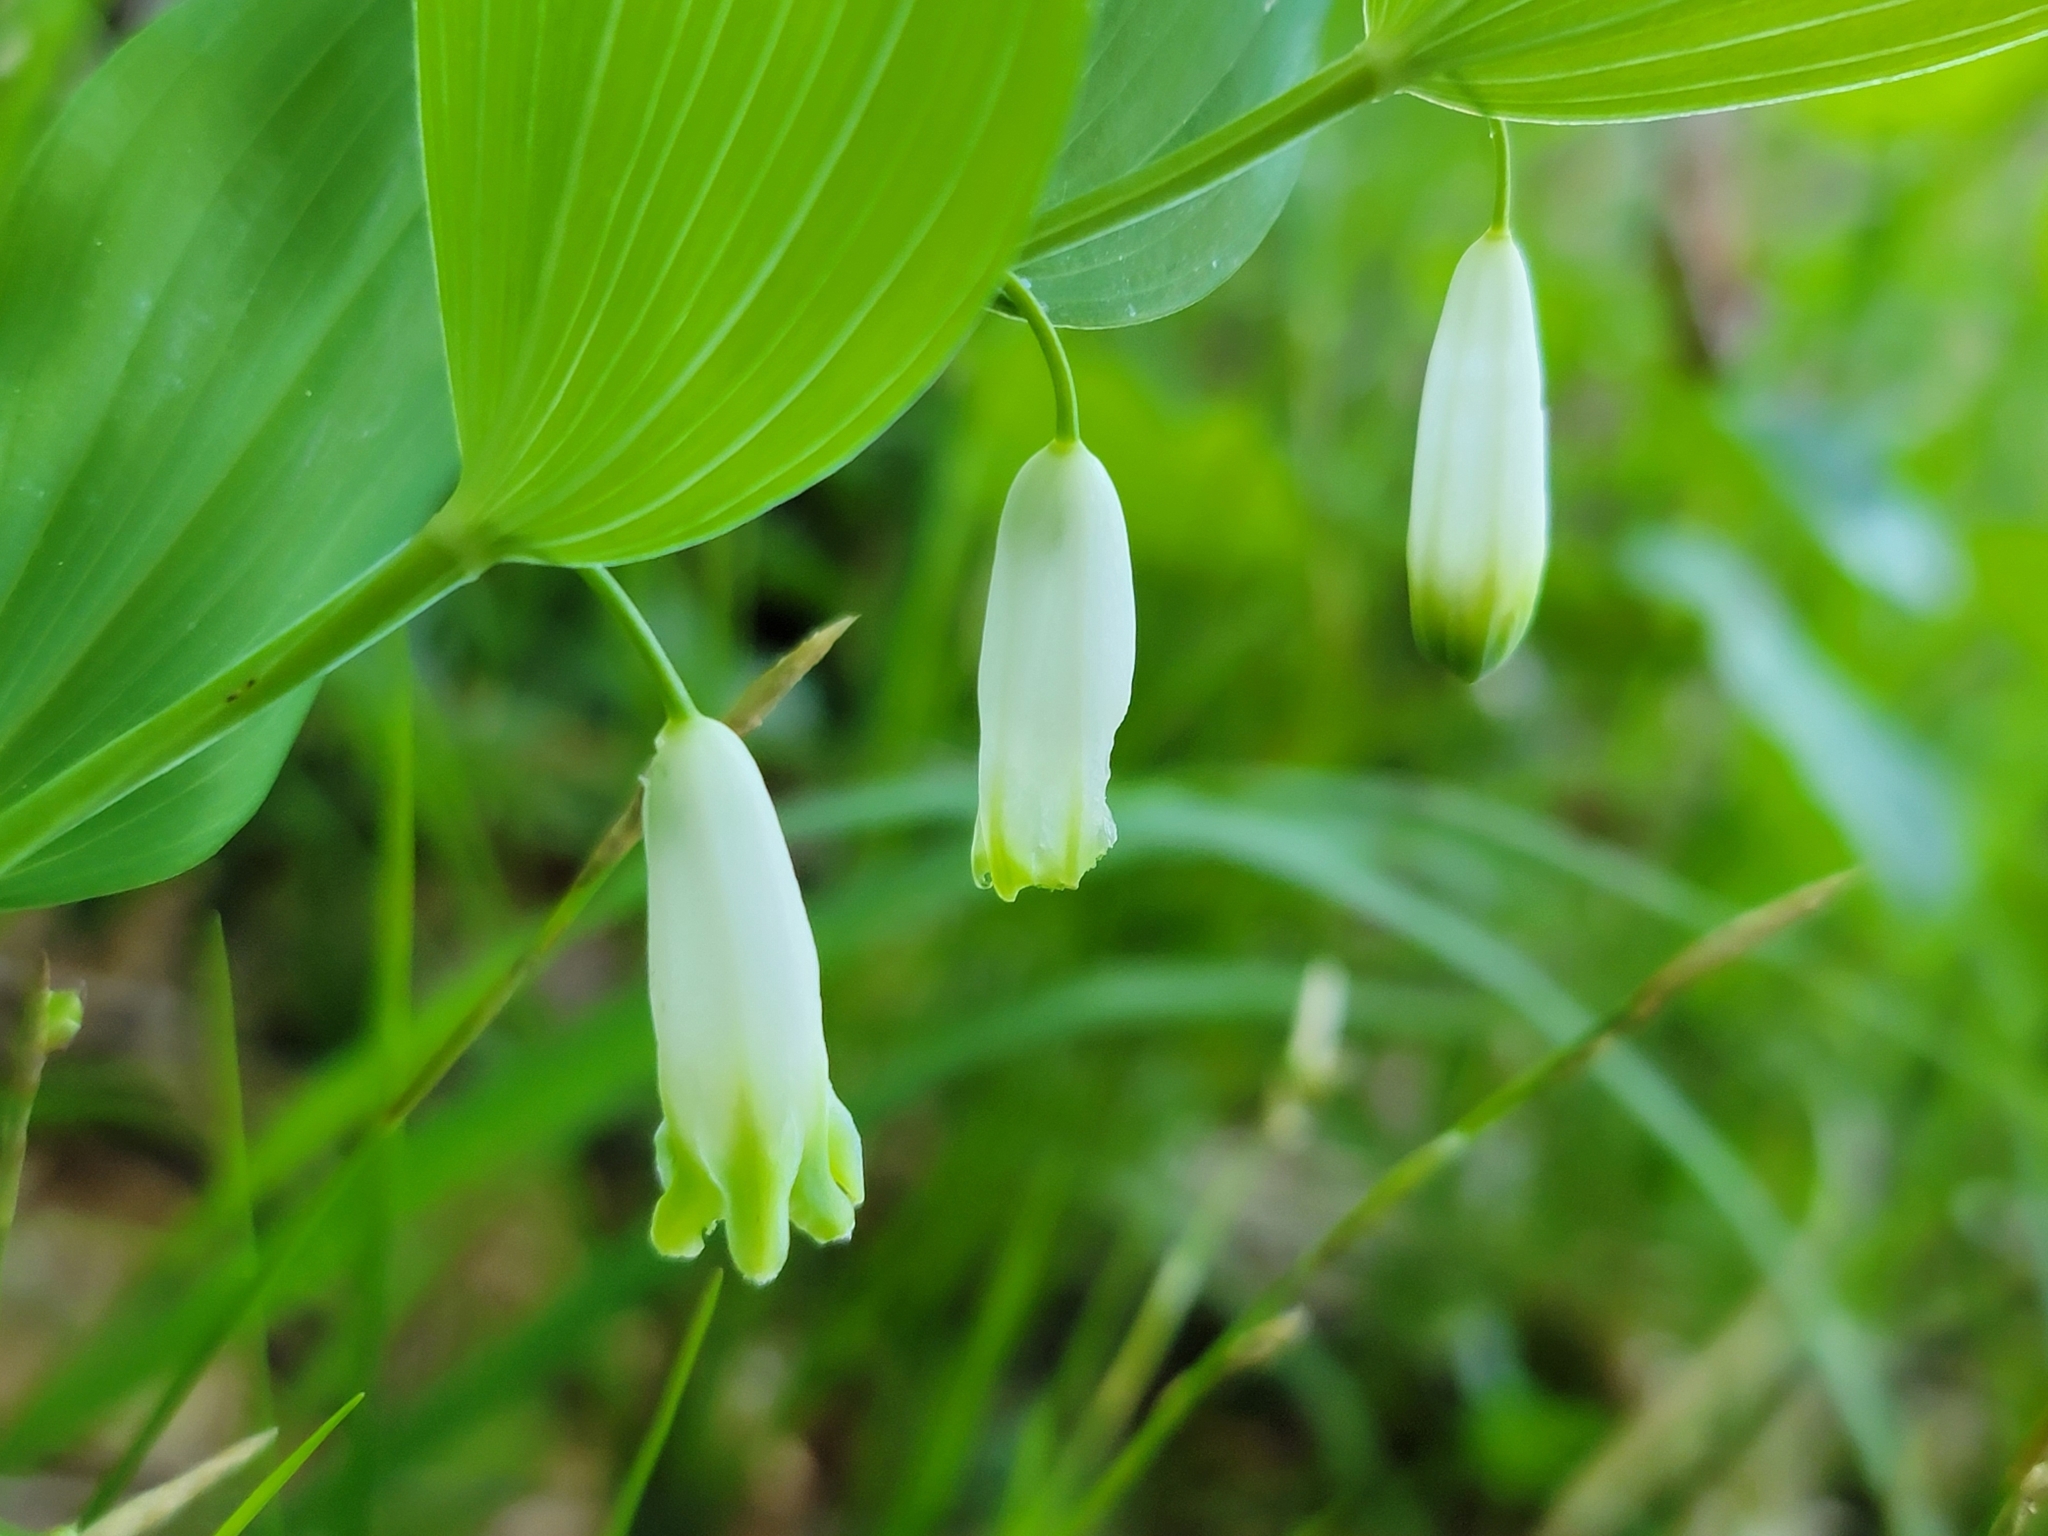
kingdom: Plantae
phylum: Tracheophyta
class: Liliopsida
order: Asparagales
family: Asparagaceae
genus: Polygonatum
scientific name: Polygonatum odoratum
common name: Angular solomon's-seal
